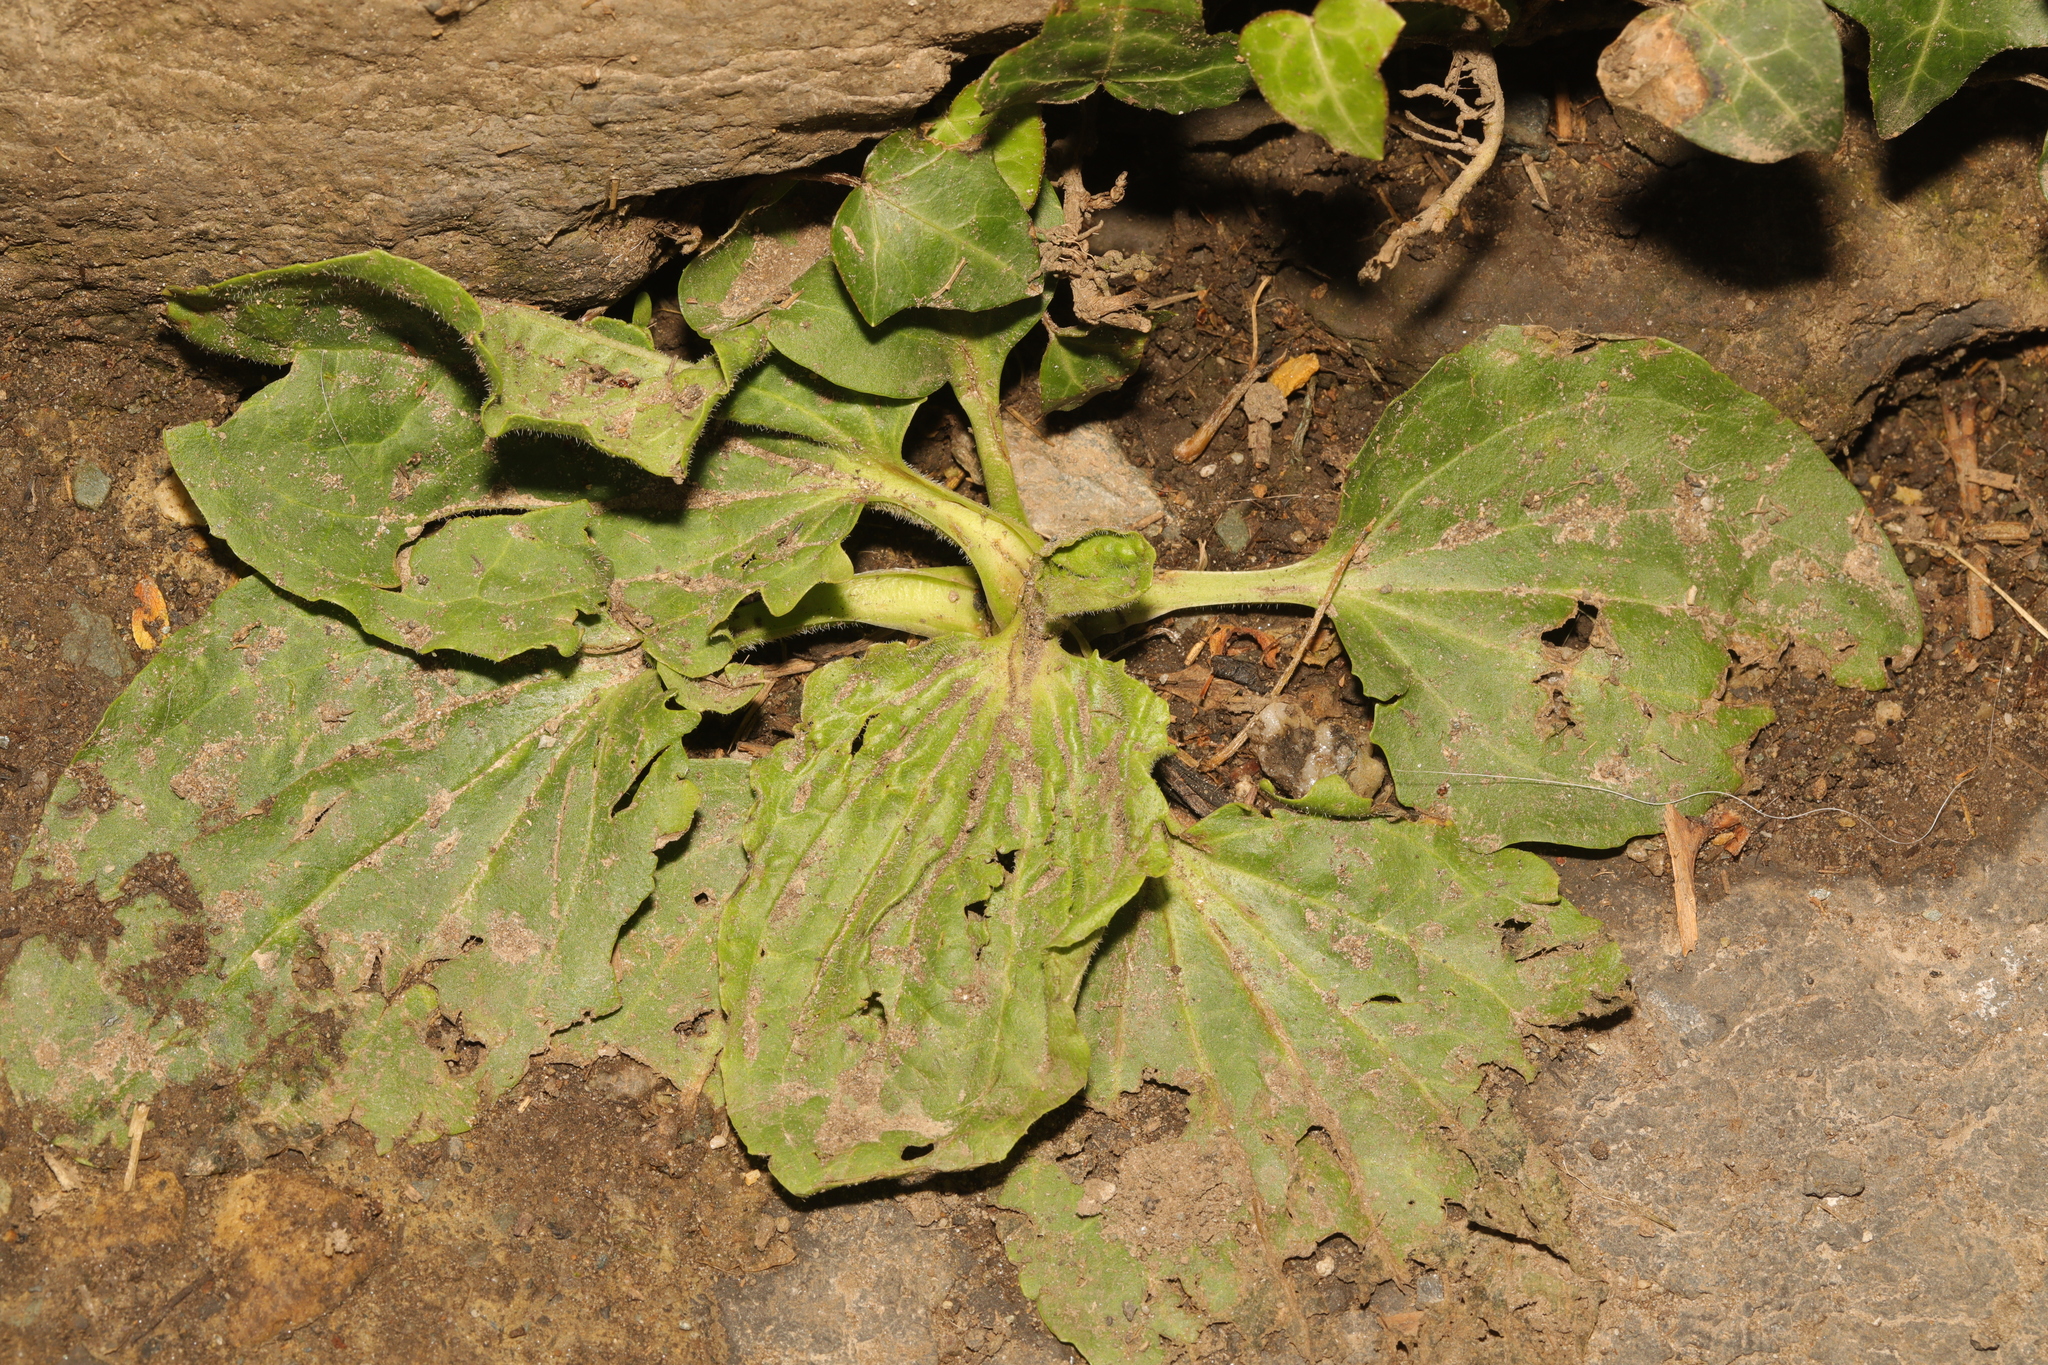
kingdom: Plantae
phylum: Tracheophyta
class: Magnoliopsida
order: Lamiales
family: Plantaginaceae
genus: Plantago
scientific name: Plantago major
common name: Common plantain
